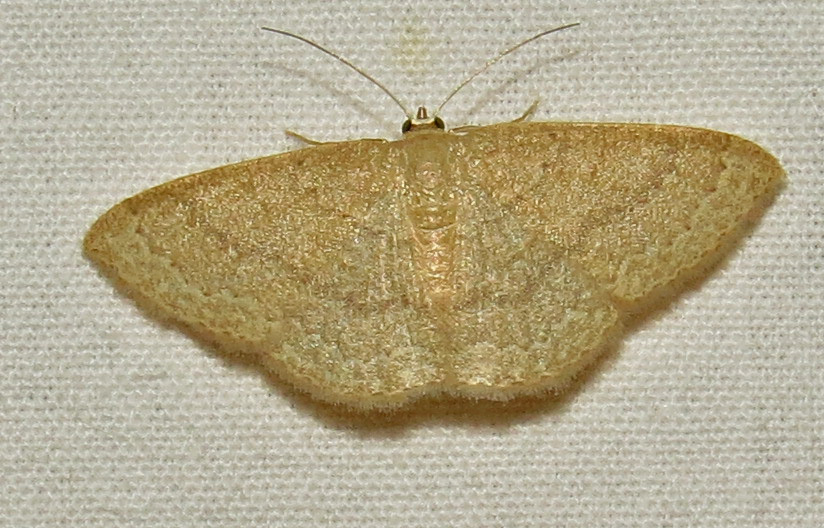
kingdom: Animalia
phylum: Arthropoda
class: Insecta
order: Lepidoptera
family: Geometridae
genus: Pleuroprucha
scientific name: Pleuroprucha insulsaria
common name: Common tan wave
